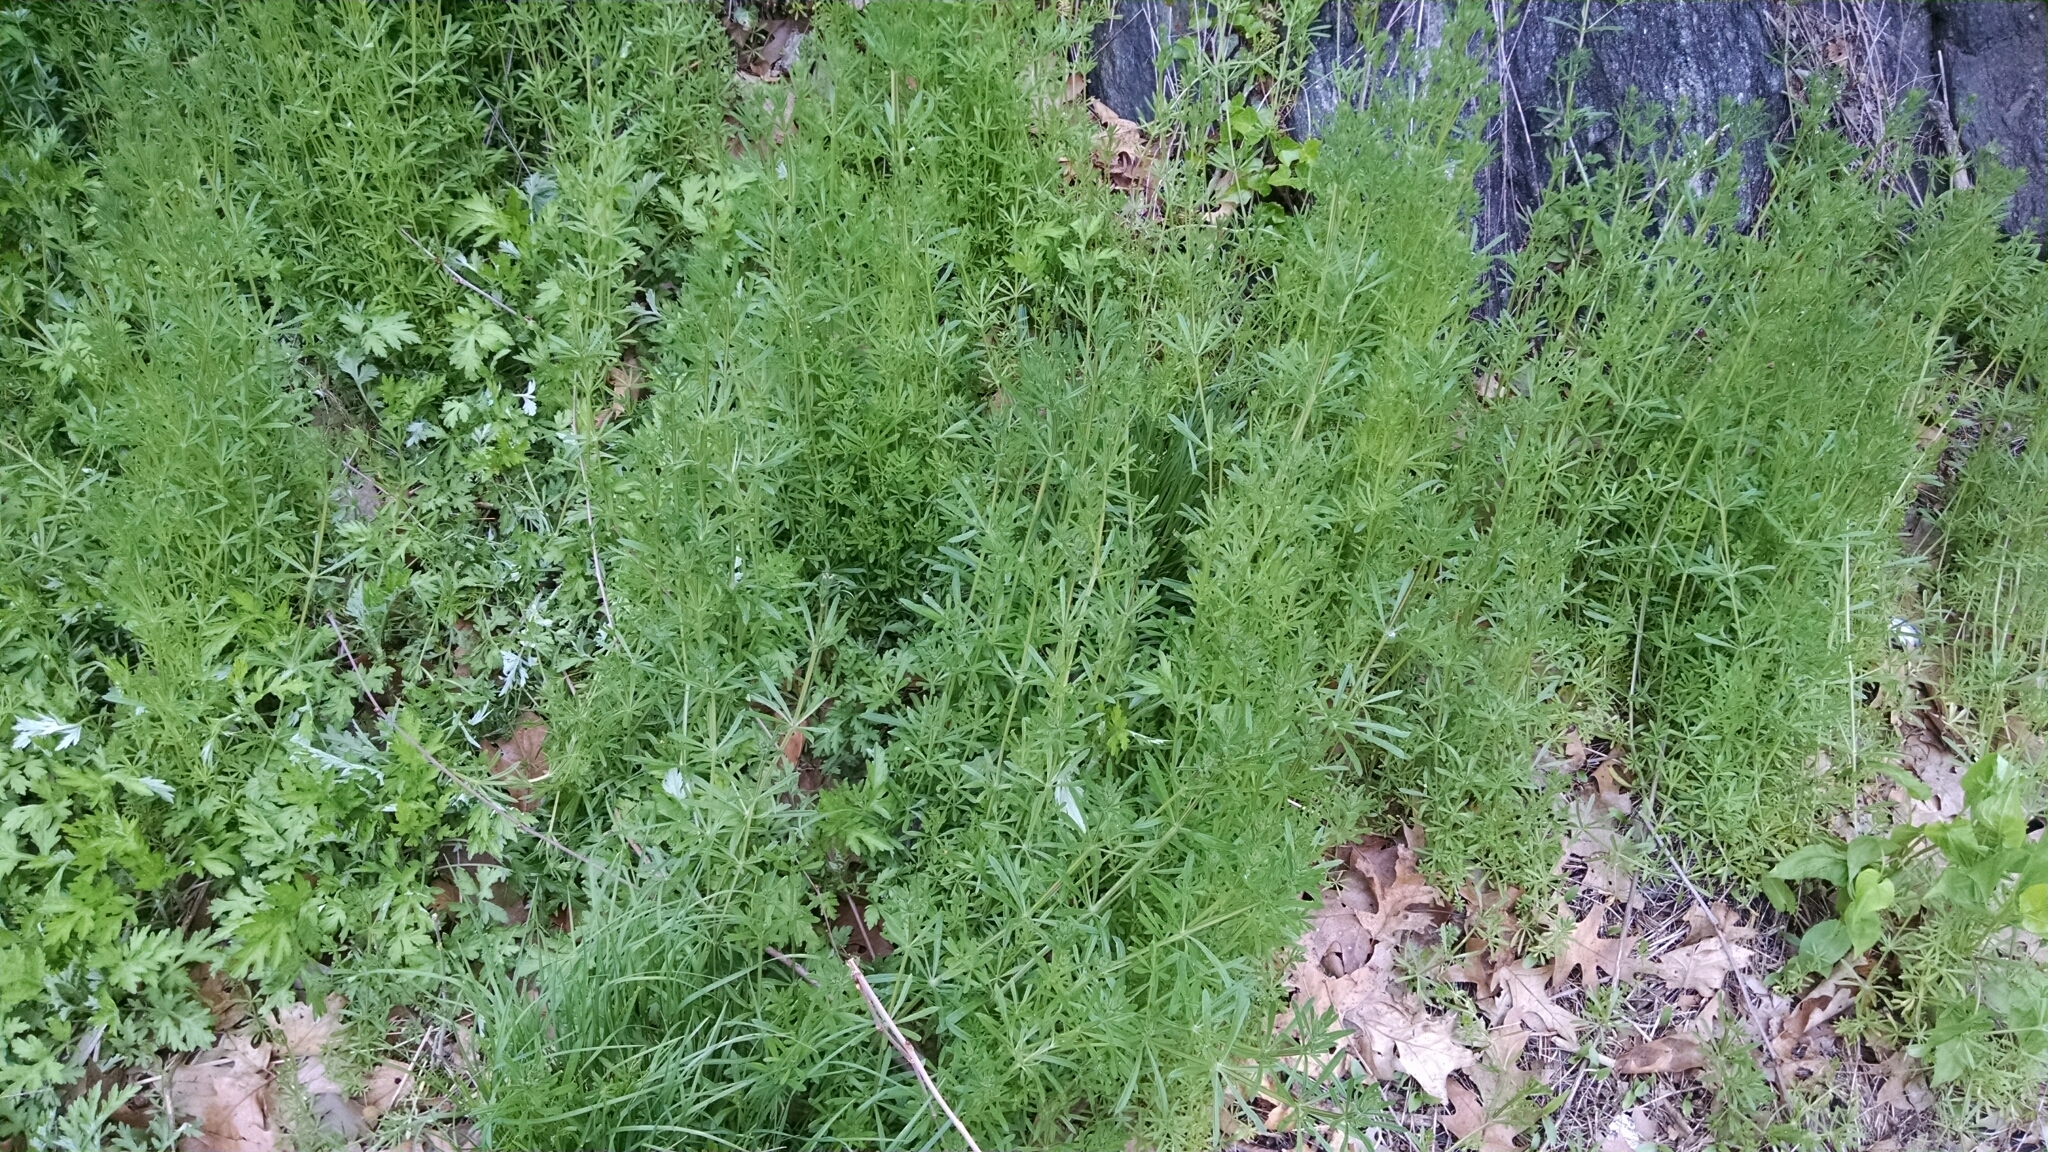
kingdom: Plantae
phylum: Tracheophyta
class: Magnoliopsida
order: Gentianales
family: Rubiaceae
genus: Galium
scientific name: Galium aparine
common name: Cleavers
